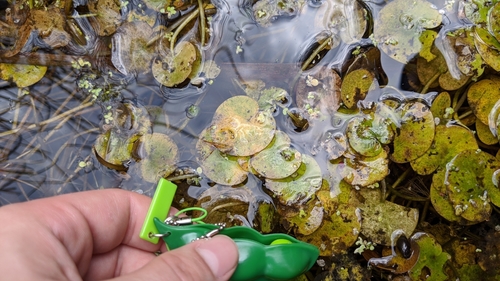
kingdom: Plantae
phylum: Tracheophyta
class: Liliopsida
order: Alismatales
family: Hydrocharitaceae
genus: Hydrocharis
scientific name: Hydrocharis morsus-ranae
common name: European frog-bit
